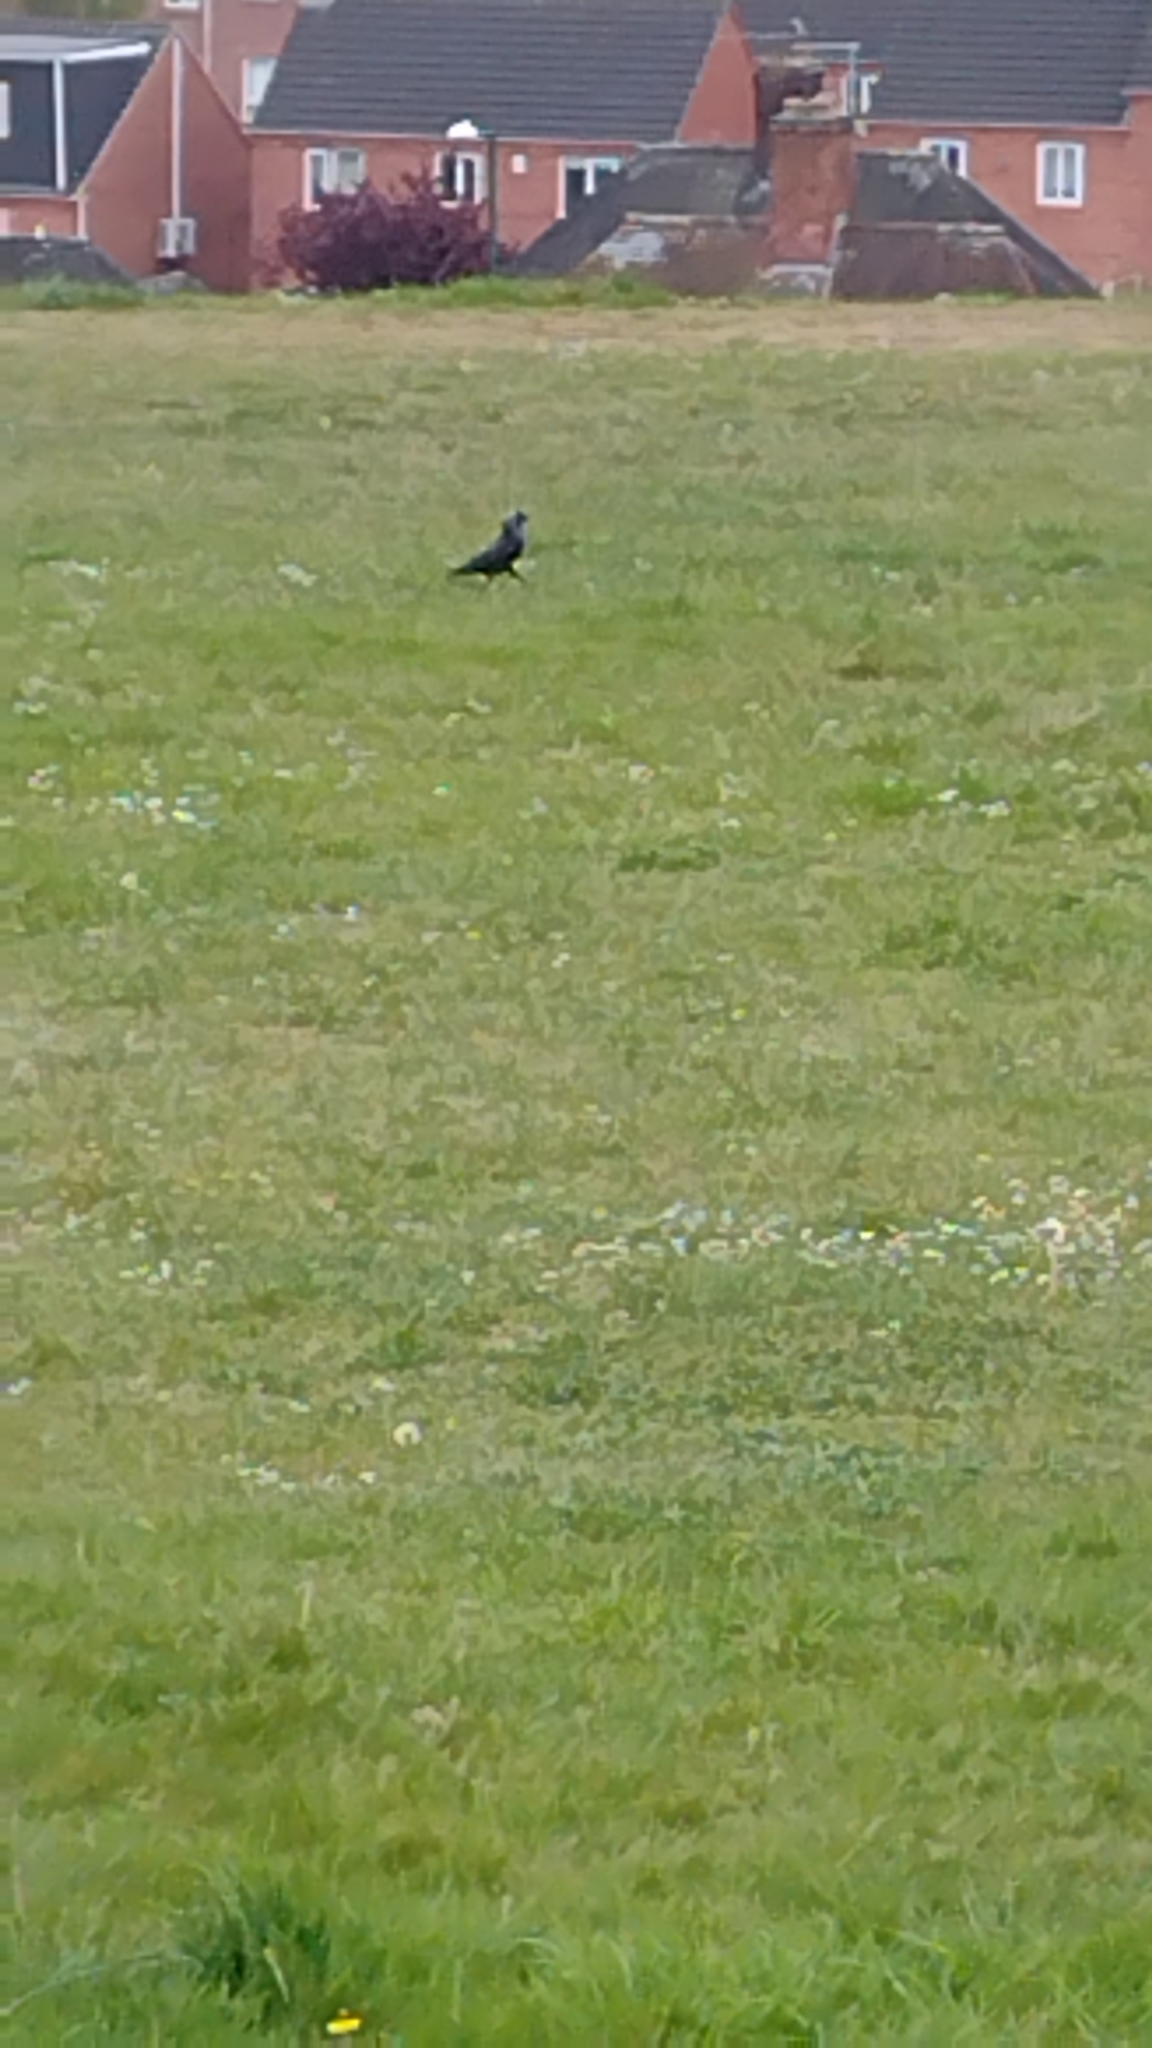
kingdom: Animalia
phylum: Chordata
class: Aves
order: Passeriformes
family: Corvidae
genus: Coloeus
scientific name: Coloeus monedula
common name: Western jackdaw
